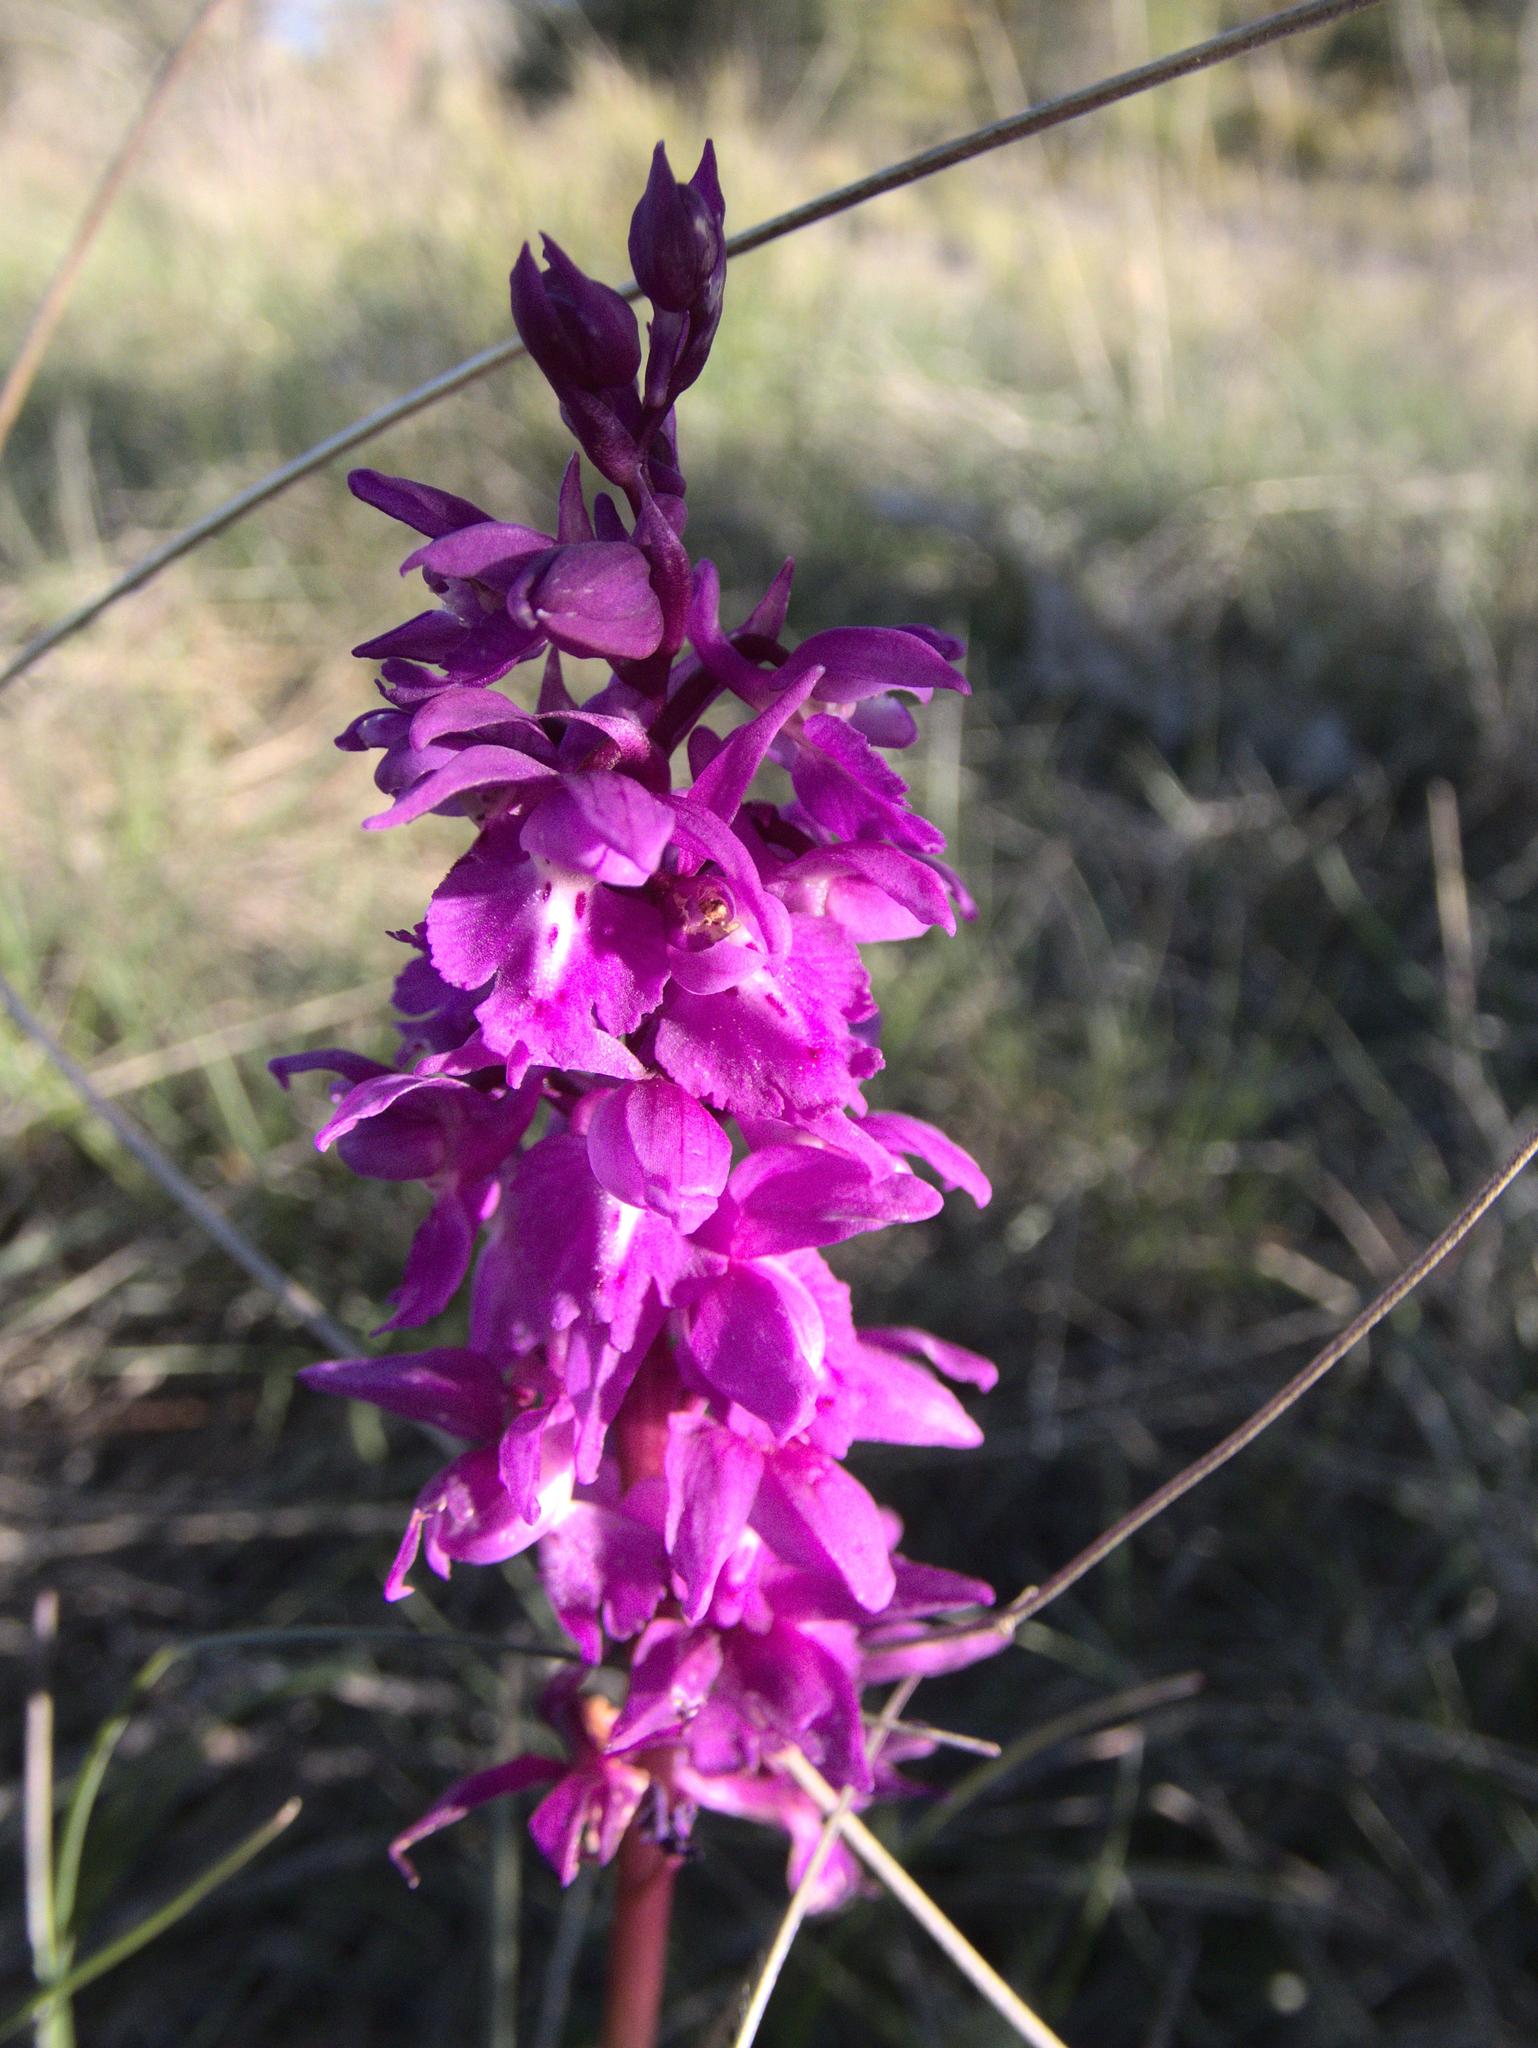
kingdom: Plantae
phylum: Tracheophyta
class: Liliopsida
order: Asparagales
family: Orchidaceae
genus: Orchis
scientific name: Orchis mascula
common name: Early-purple orchid
